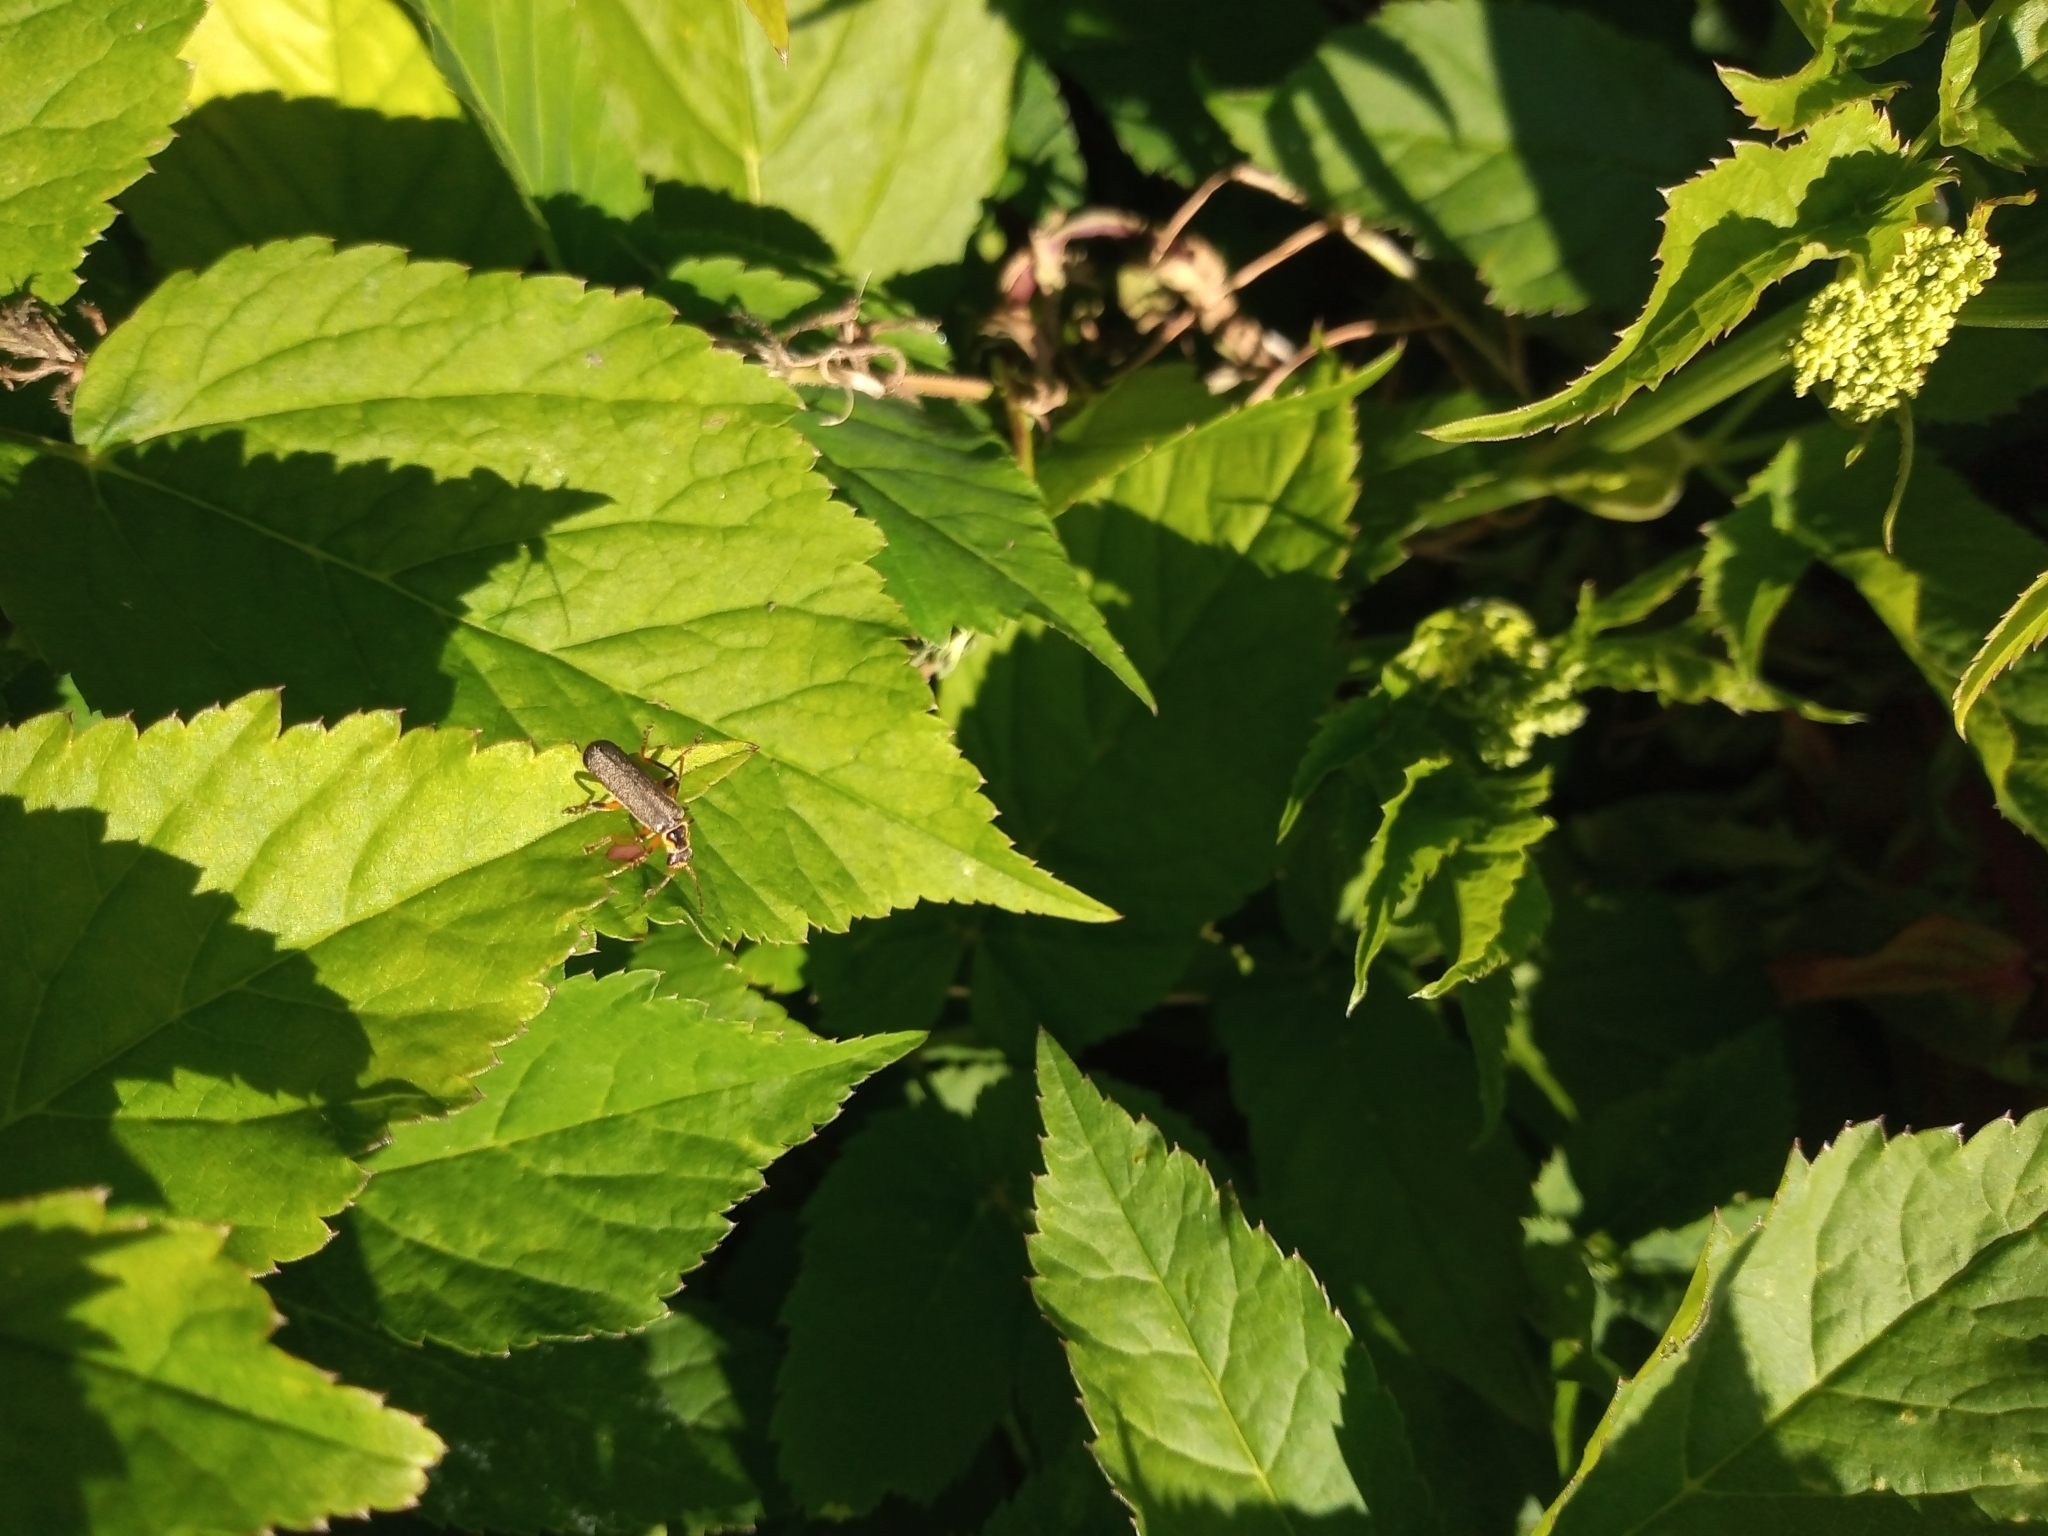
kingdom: Animalia
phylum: Arthropoda
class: Insecta
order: Coleoptera
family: Cantharidae
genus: Cantharis
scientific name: Cantharis nigricans
